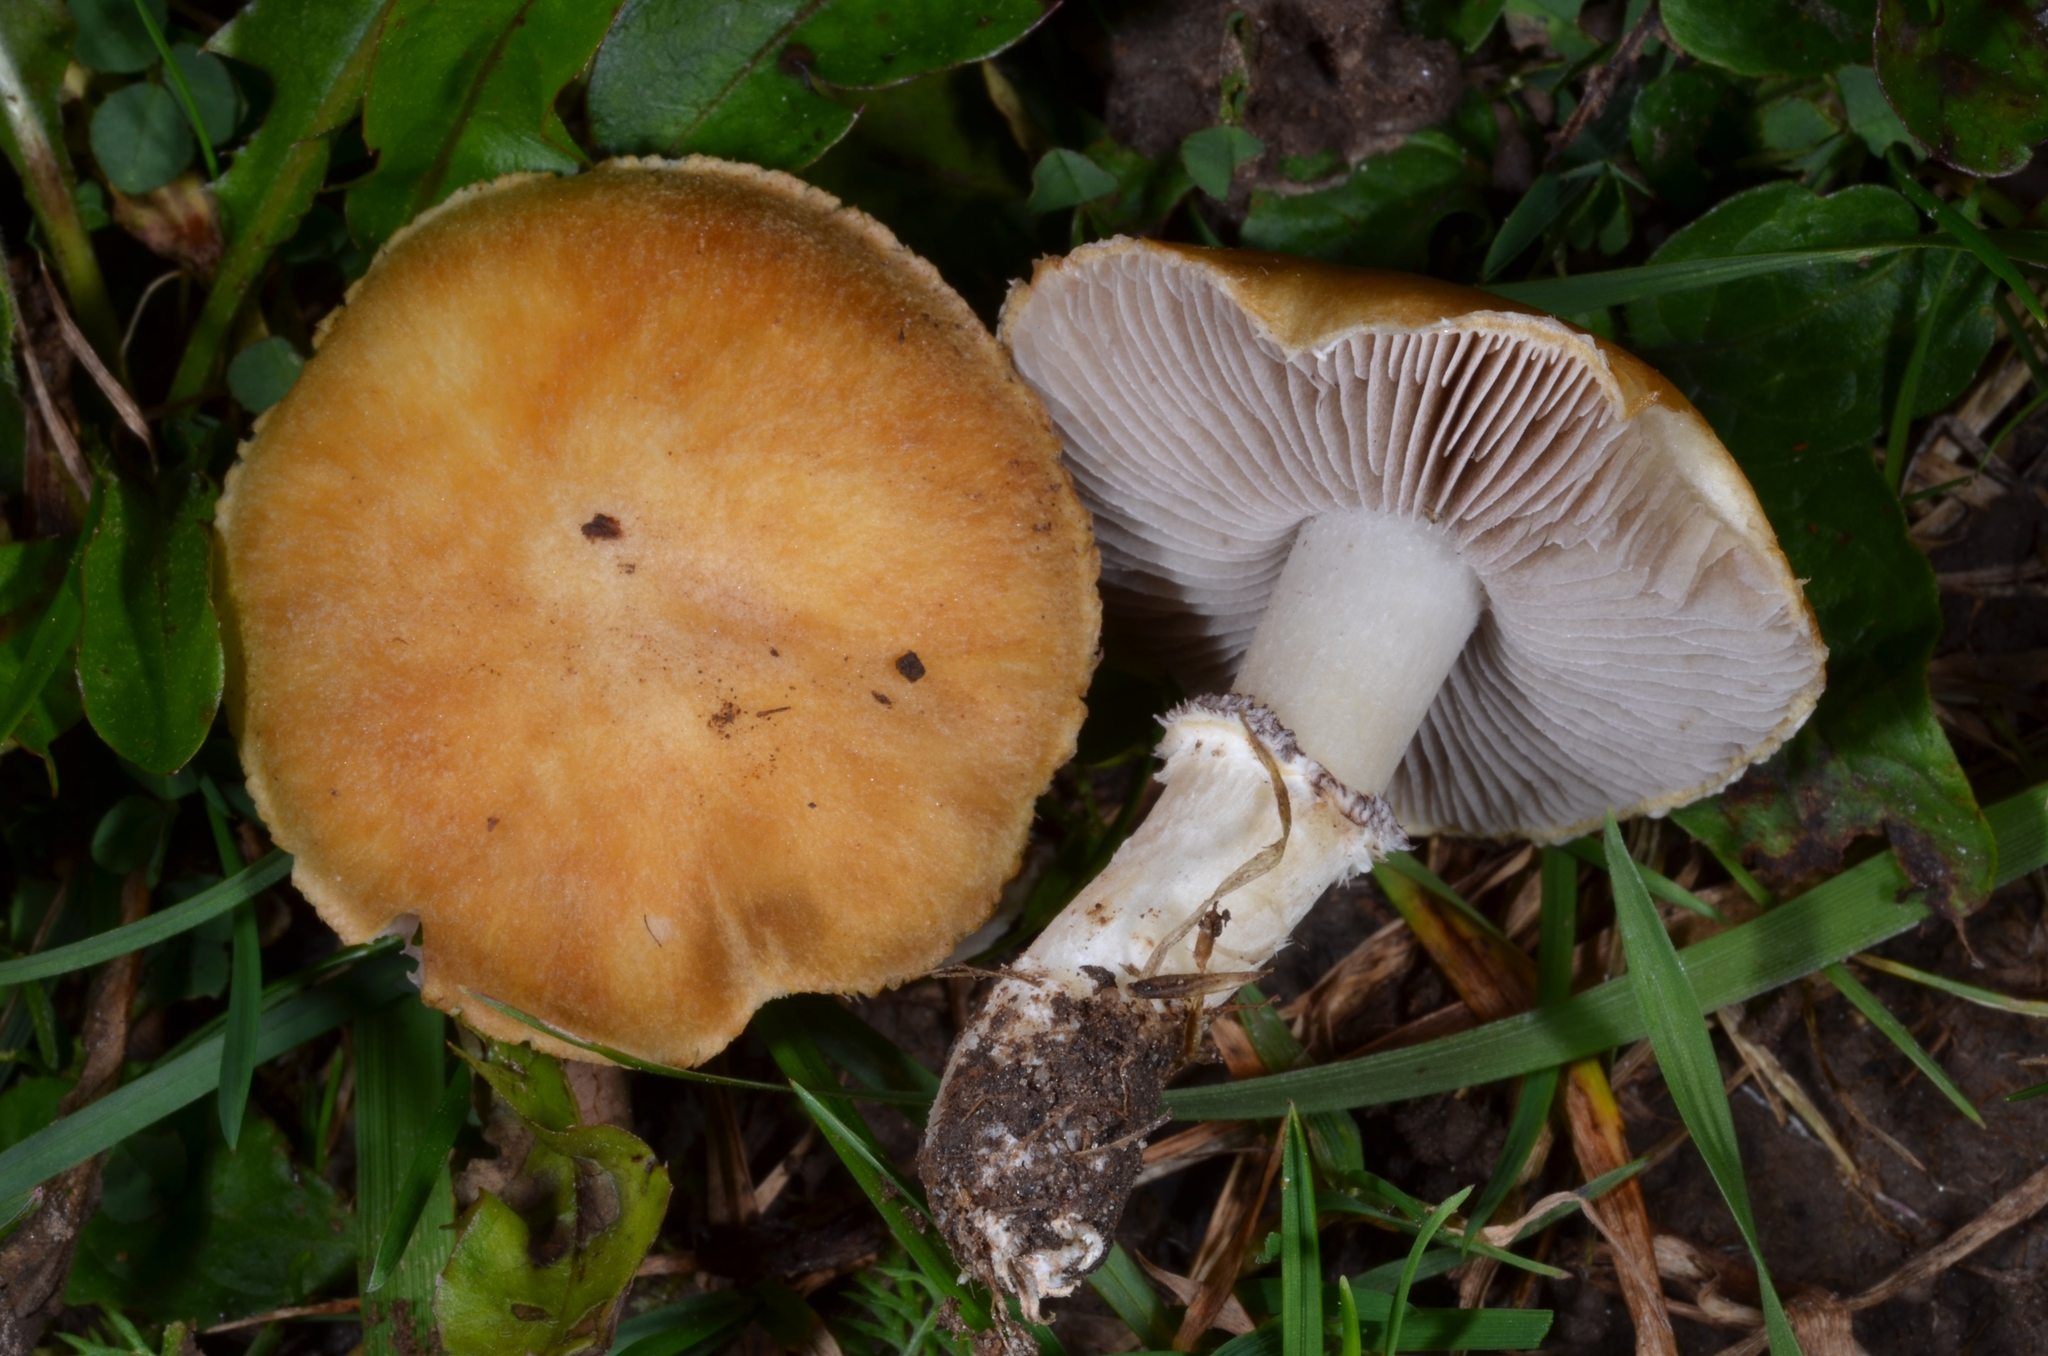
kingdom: Fungi
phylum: Basidiomycota
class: Agaricomycetes
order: Agaricales
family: Hymenogastraceae
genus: Psilocybe
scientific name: Psilocybe coronilla
